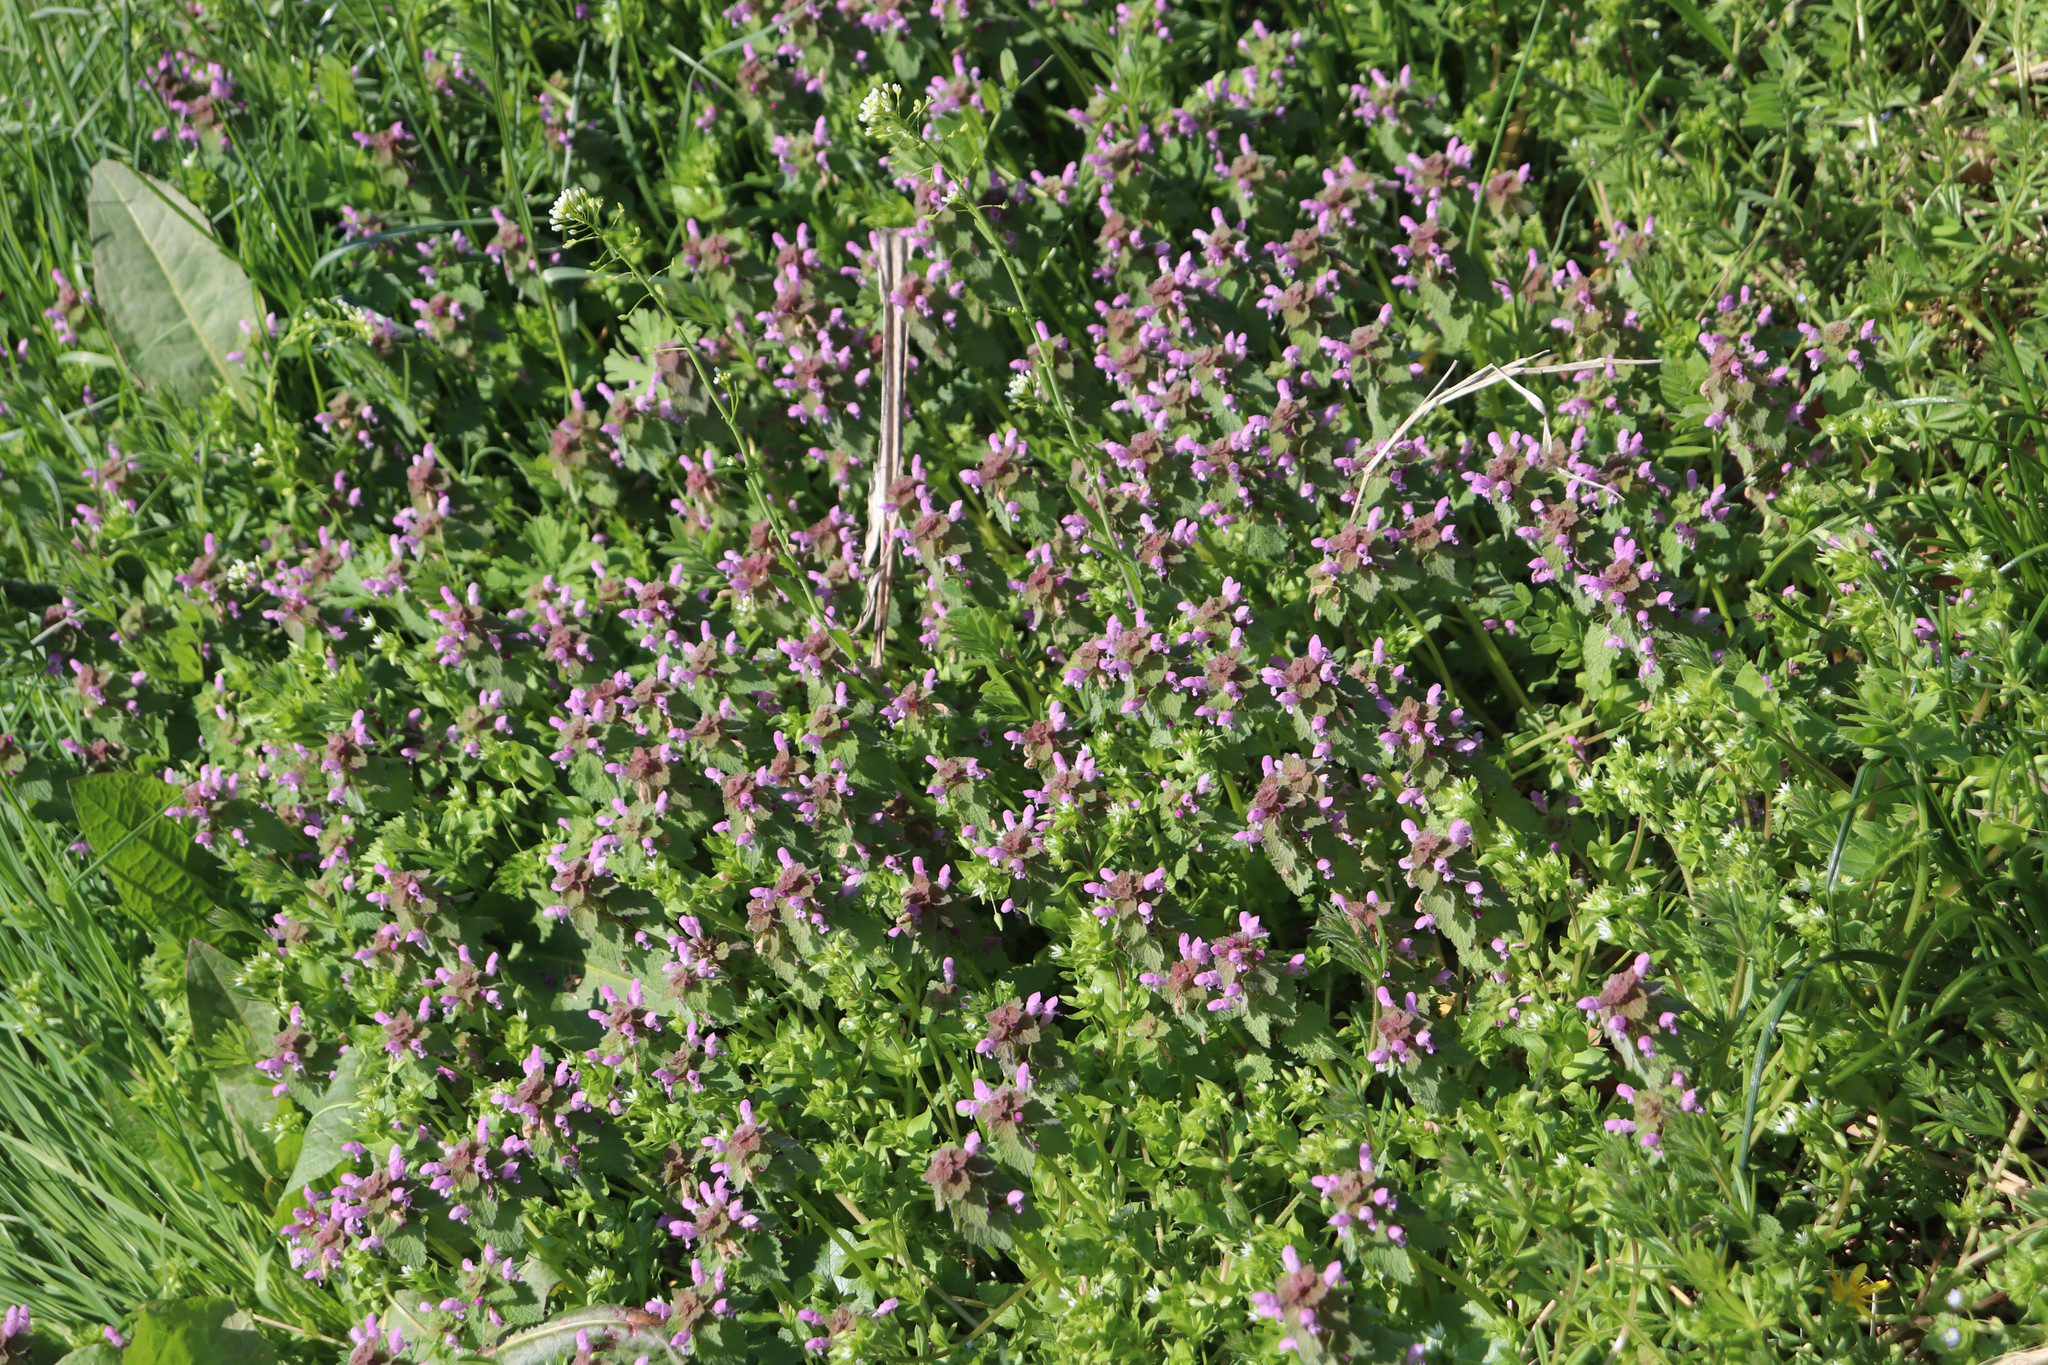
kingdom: Plantae
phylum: Tracheophyta
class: Magnoliopsida
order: Lamiales
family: Lamiaceae
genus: Lamium
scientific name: Lamium purpureum
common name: Red dead-nettle
